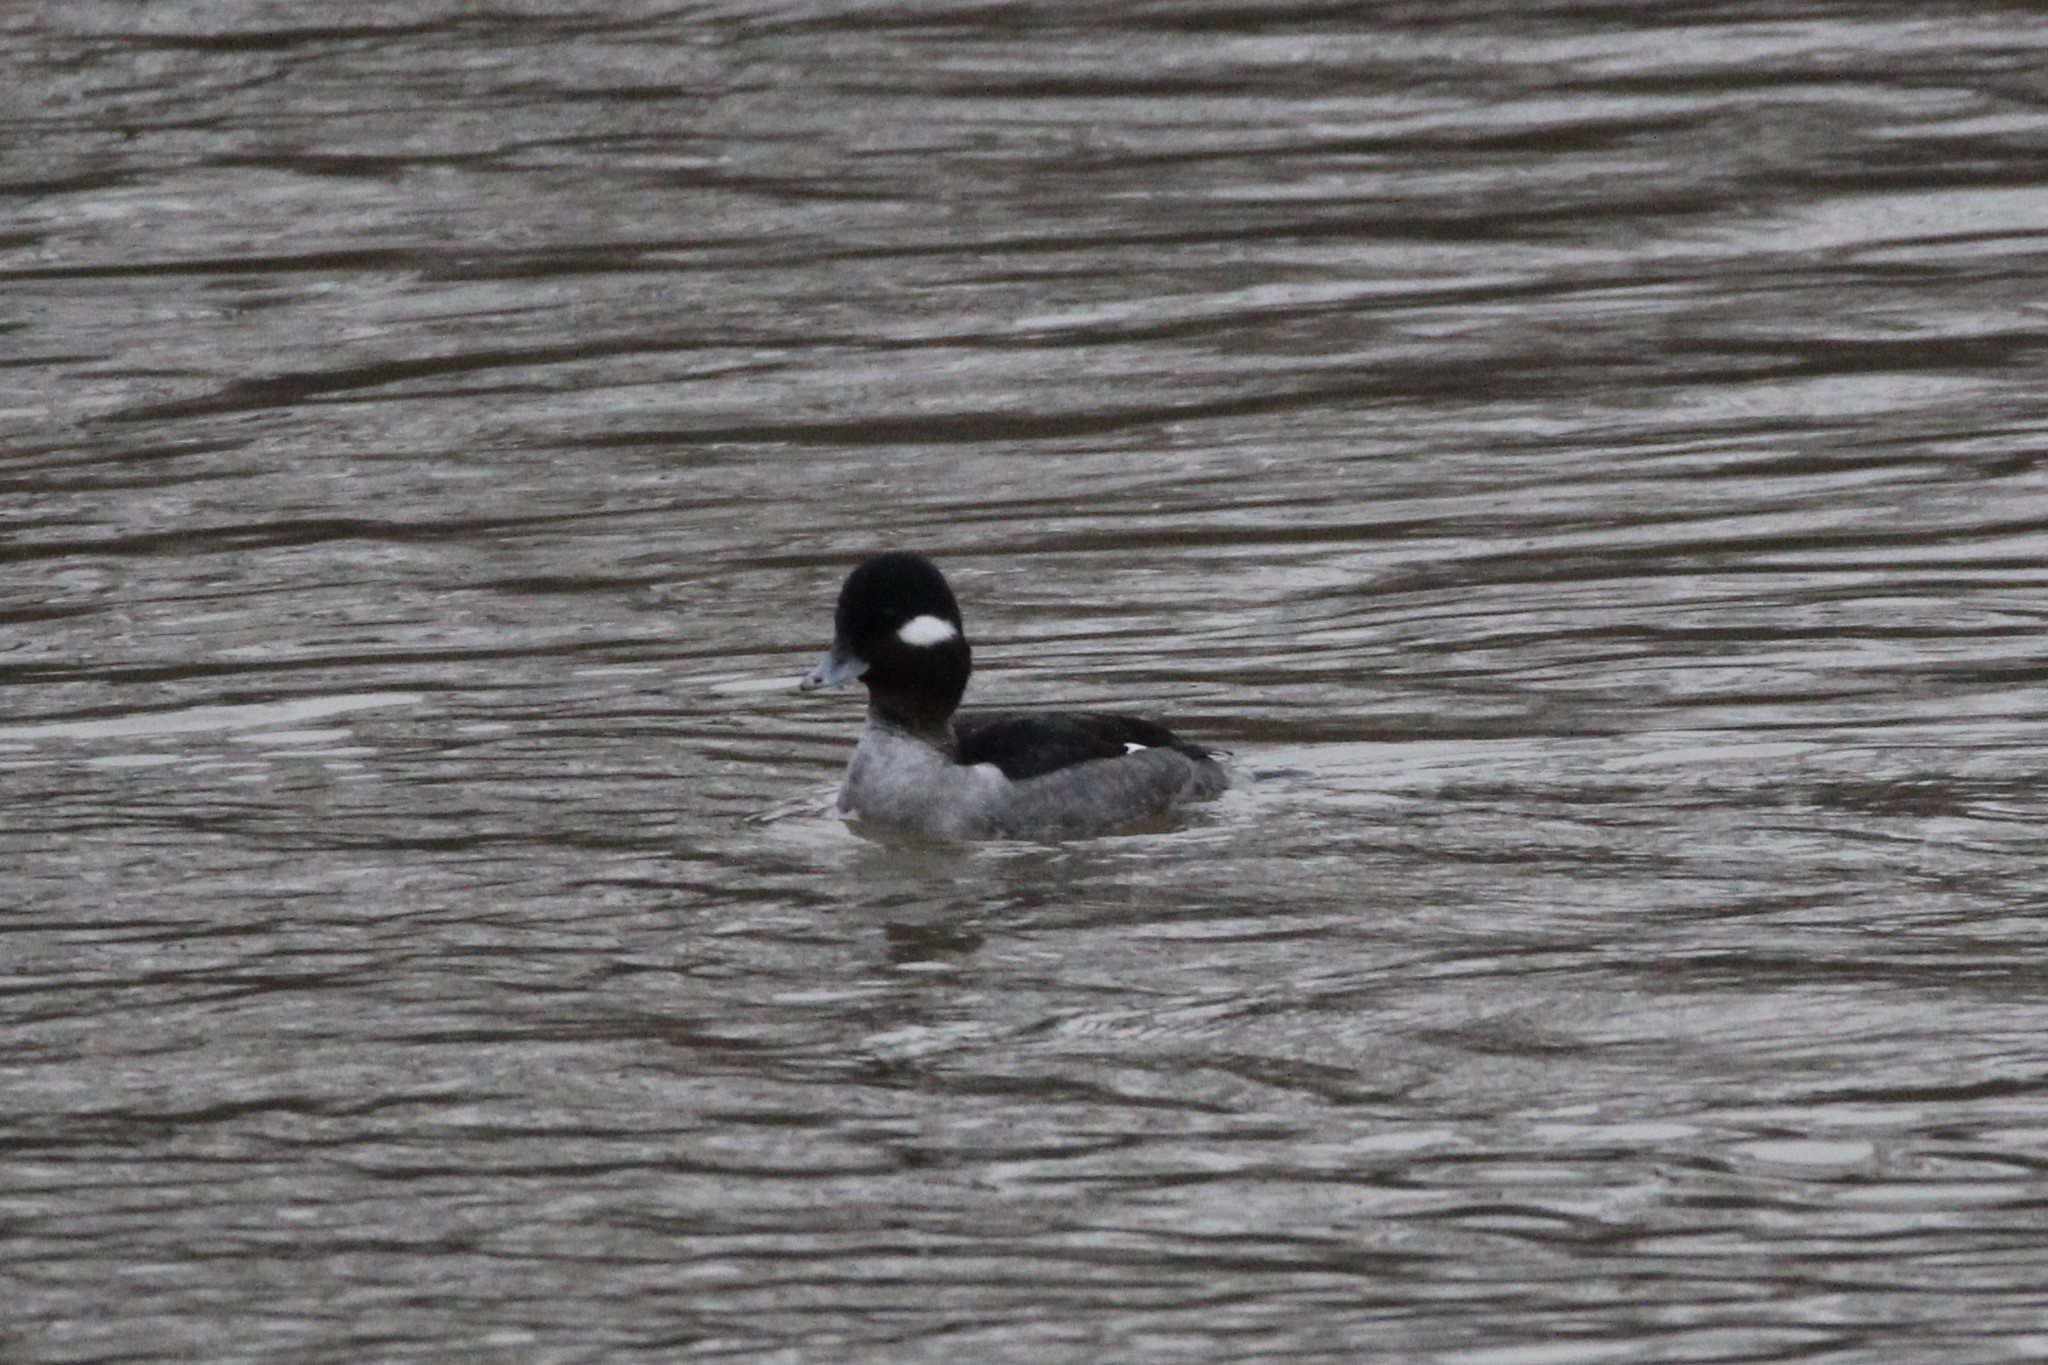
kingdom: Animalia
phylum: Chordata
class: Aves
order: Anseriformes
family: Anatidae
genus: Bucephala
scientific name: Bucephala albeola
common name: Bufflehead
